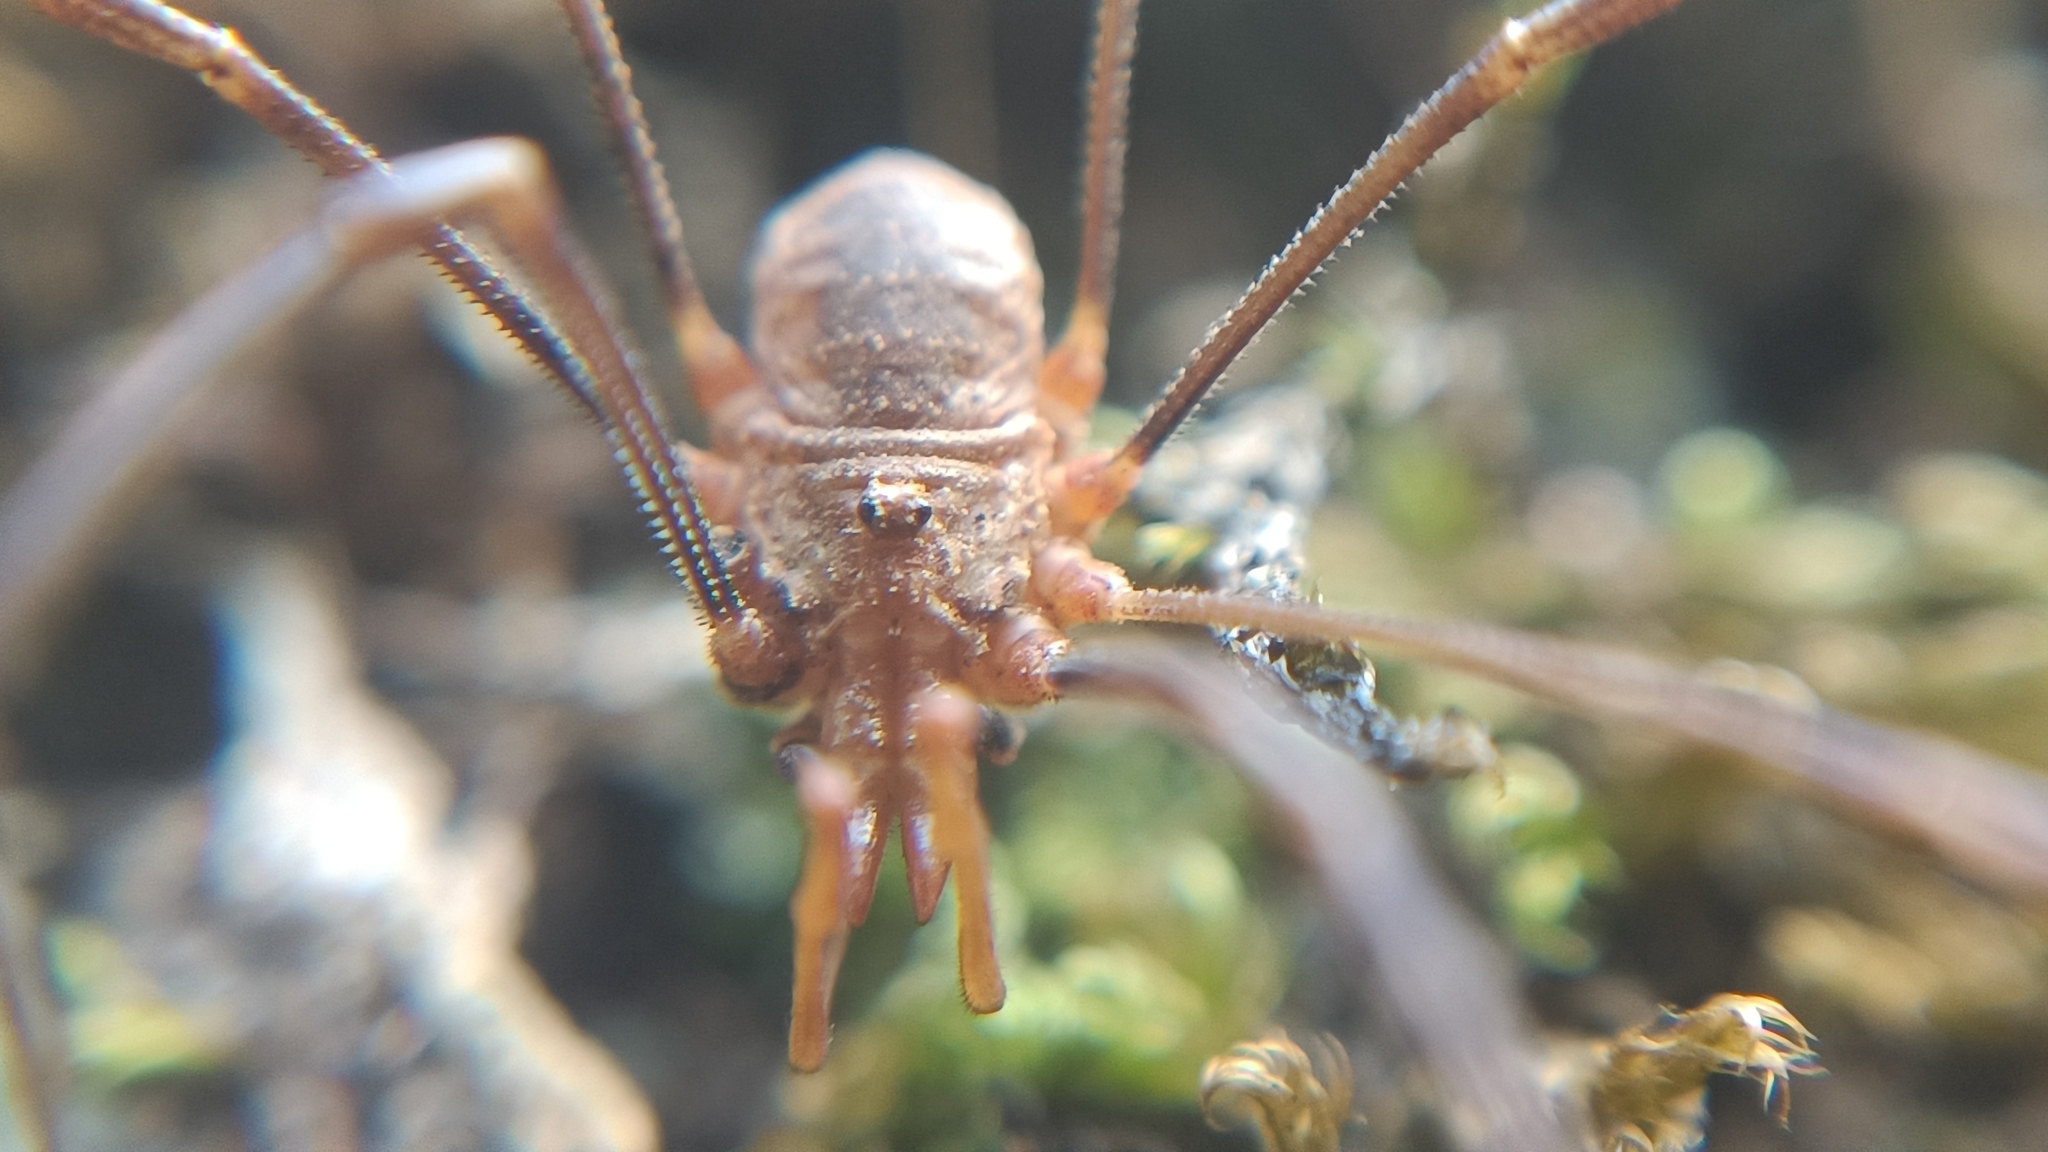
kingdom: Animalia
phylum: Arthropoda
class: Arachnida
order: Opiliones
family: Phalangiidae
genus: Phalangium
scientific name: Phalangium opilio
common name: Daddy longleg
